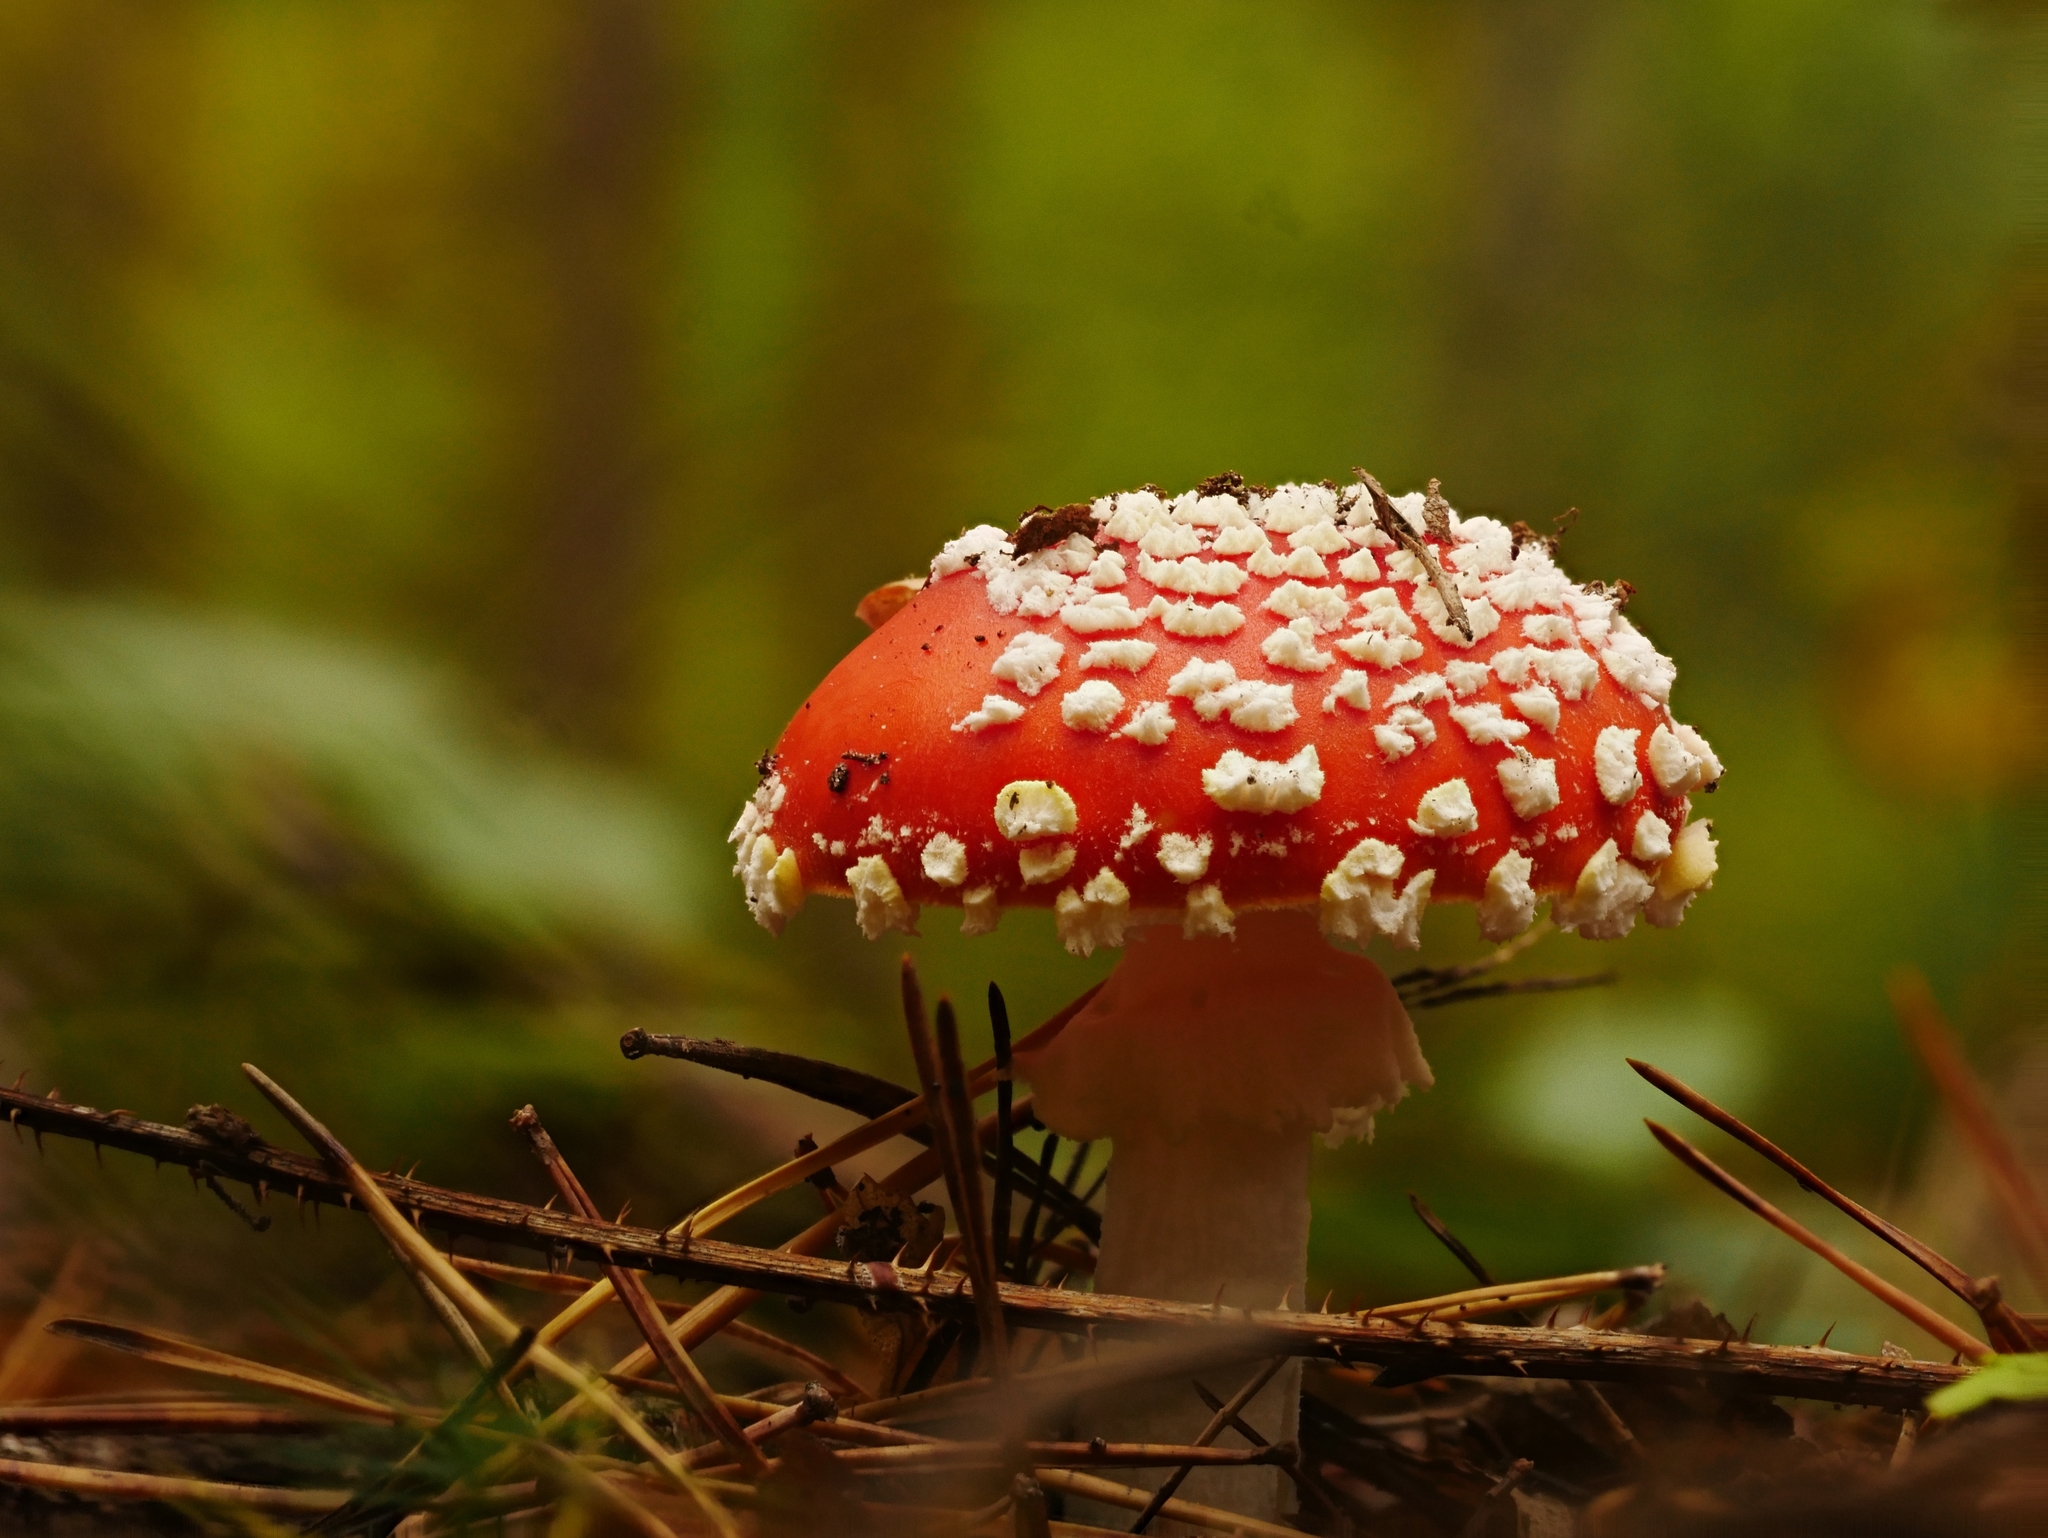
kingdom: Fungi
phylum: Basidiomycota
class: Agaricomycetes
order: Agaricales
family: Amanitaceae
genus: Amanita
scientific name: Amanita muscaria
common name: Fly agaric
